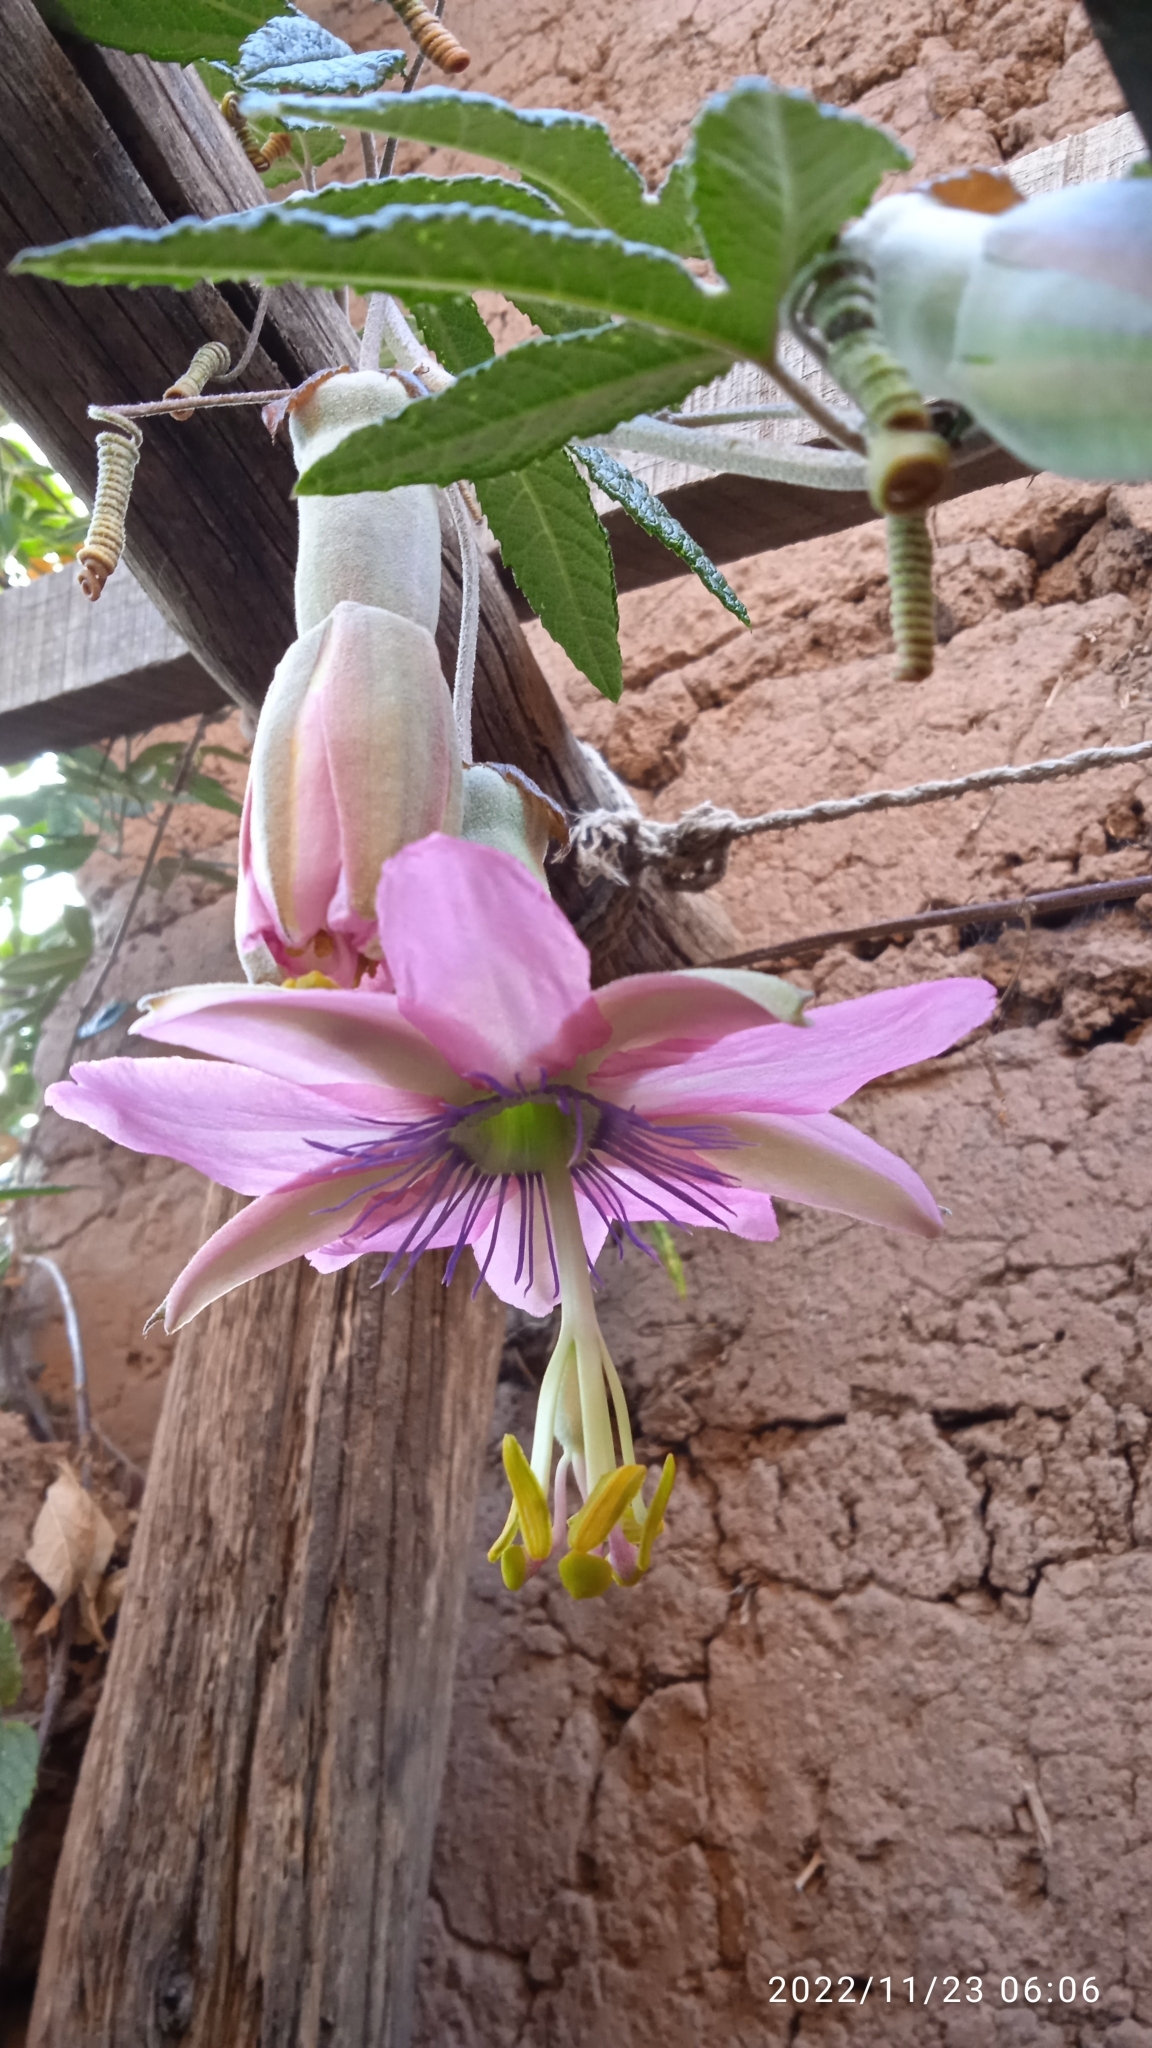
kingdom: Plantae
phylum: Tracheophyta
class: Magnoliopsida
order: Malpighiales
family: Passifloraceae
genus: Passiflora
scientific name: Passiflora pinnatistipula
